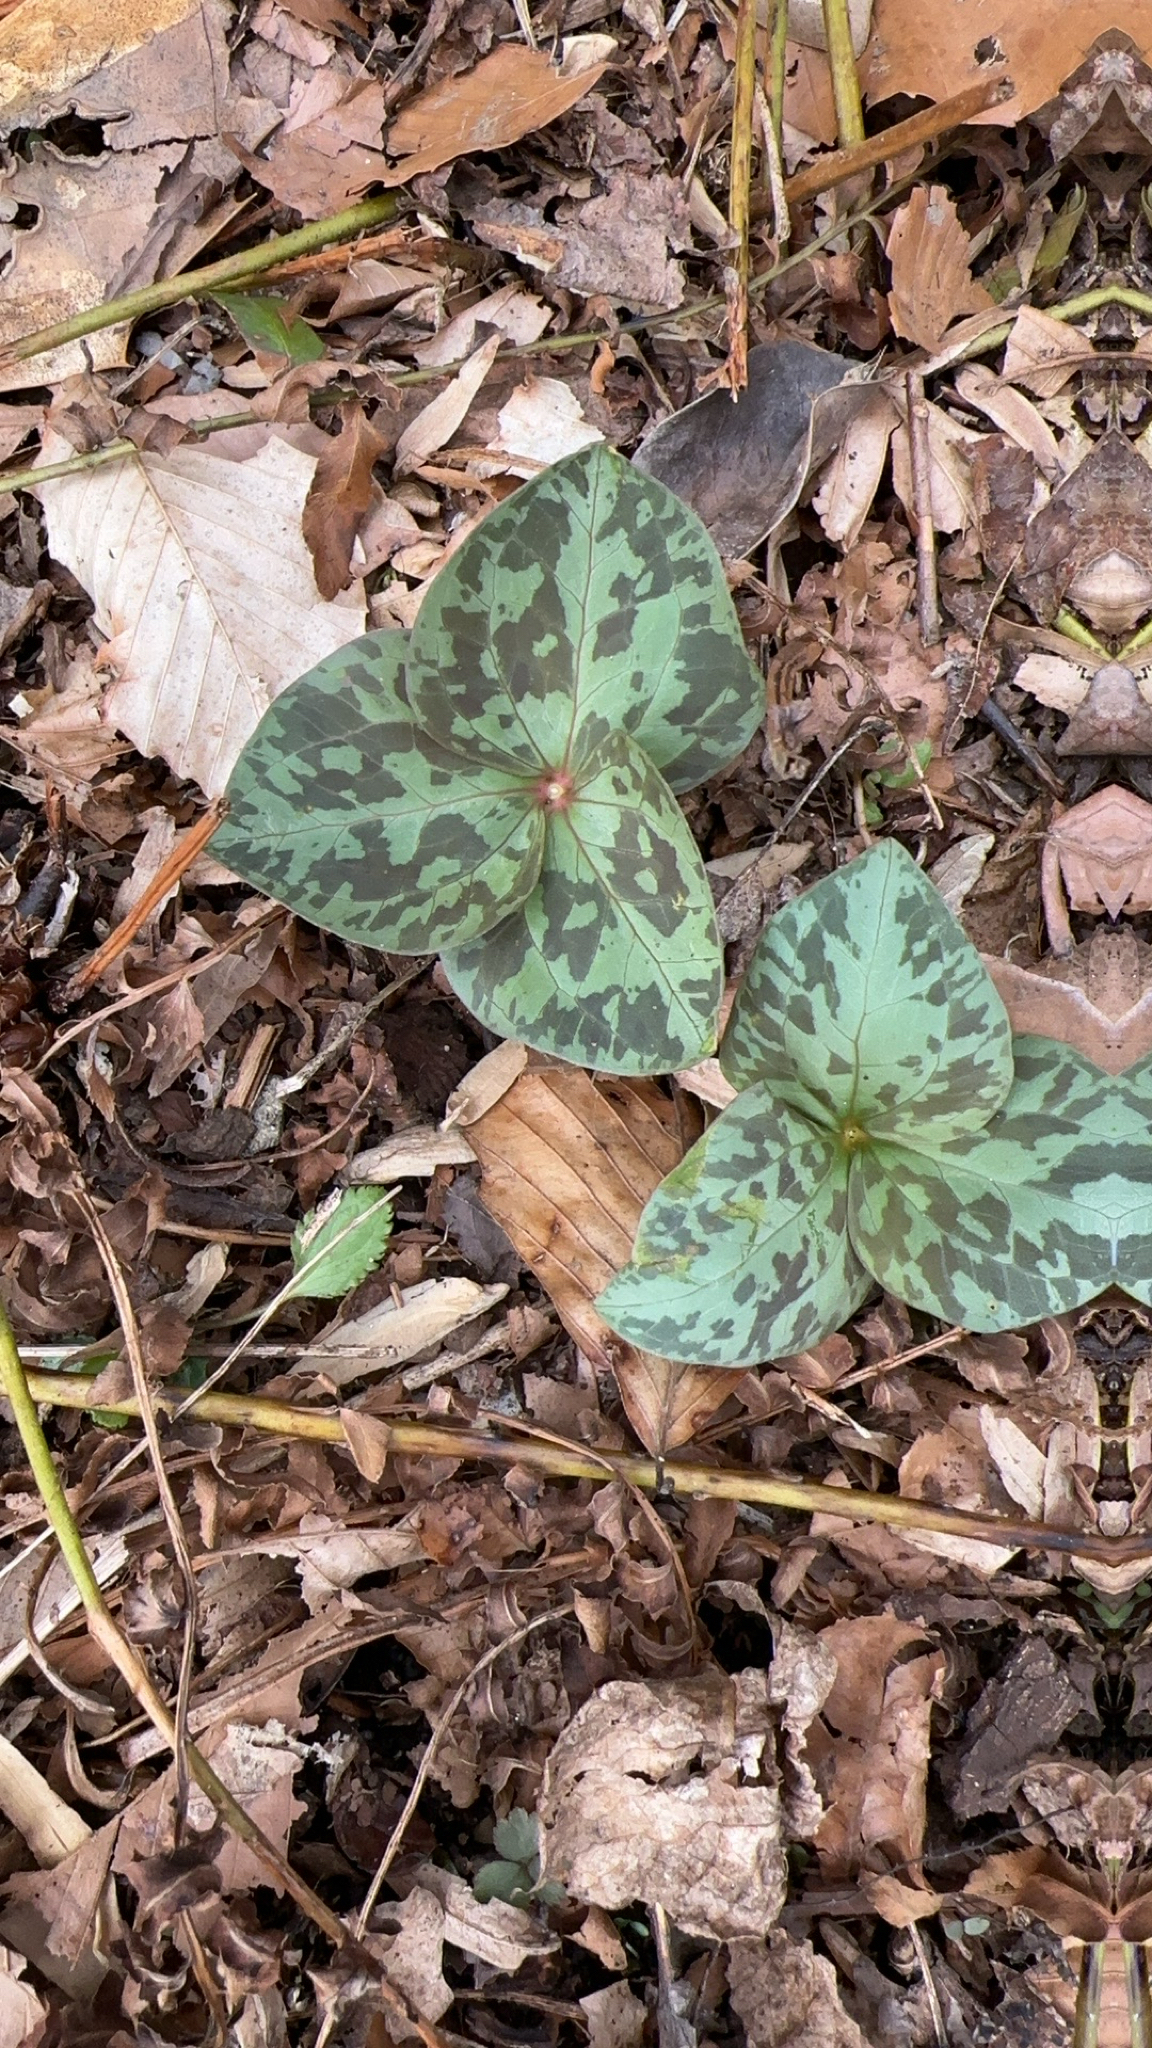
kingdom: Plantae
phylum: Tracheophyta
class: Liliopsida
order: Liliales
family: Melanthiaceae
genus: Trillium
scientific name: Trillium cuneatum
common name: Cuneate trillium
